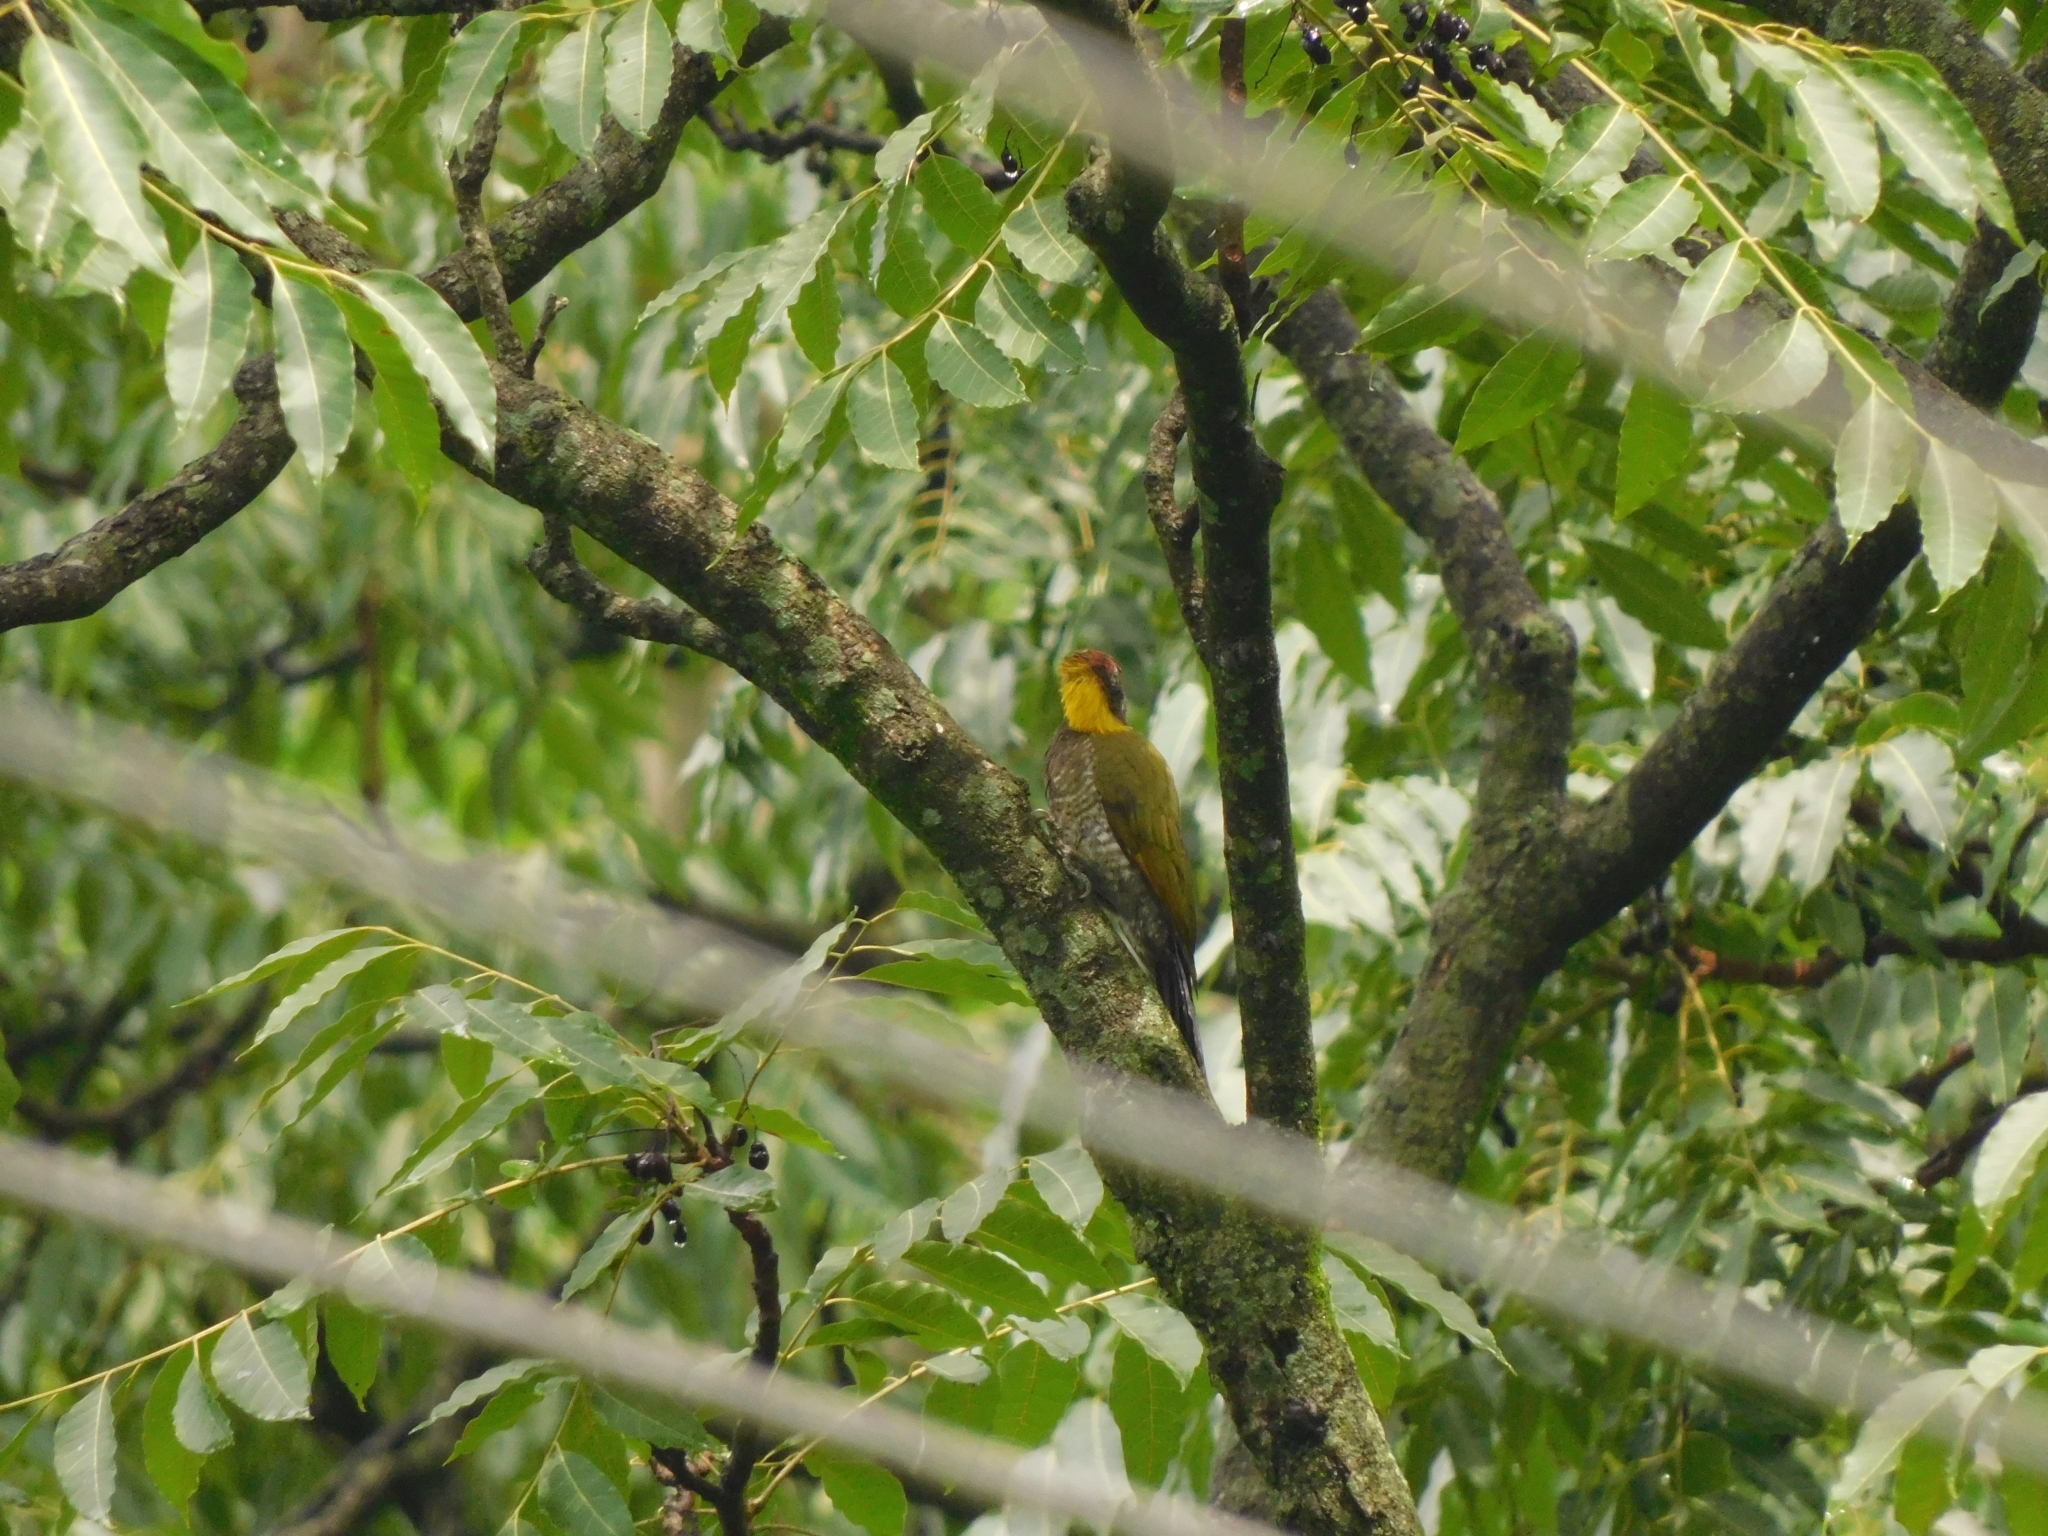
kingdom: Animalia
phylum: Chordata
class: Aves
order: Piciformes
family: Picidae
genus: Picus
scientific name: Picus chlorolophus
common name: Lesser yellownape
